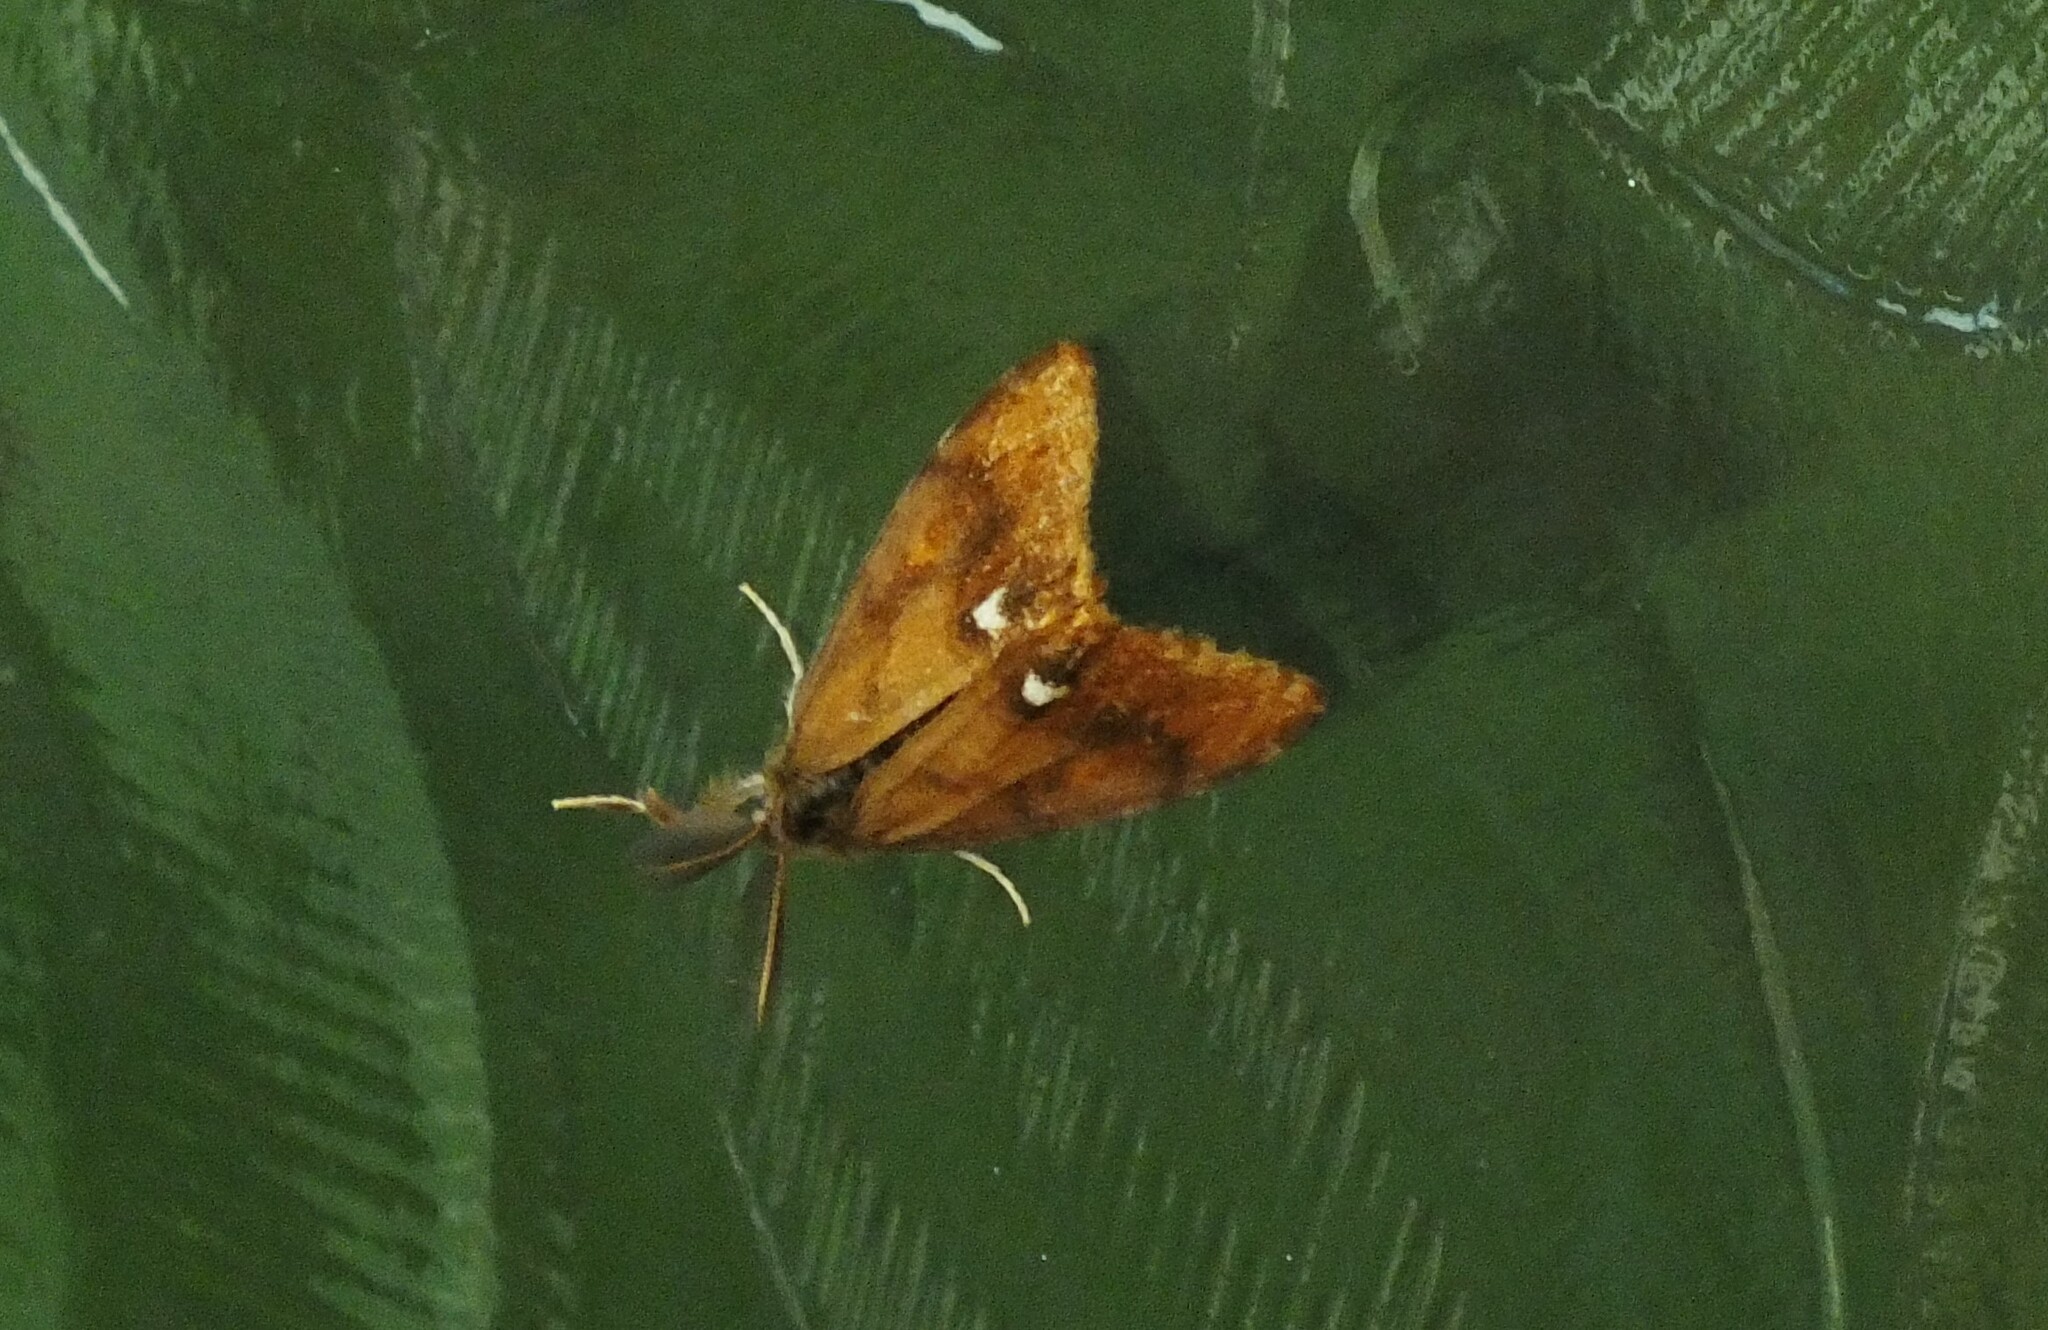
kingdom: Animalia
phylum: Arthropoda
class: Insecta
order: Lepidoptera
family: Erebidae
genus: Orgyia
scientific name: Orgyia antiqua
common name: Vapourer
